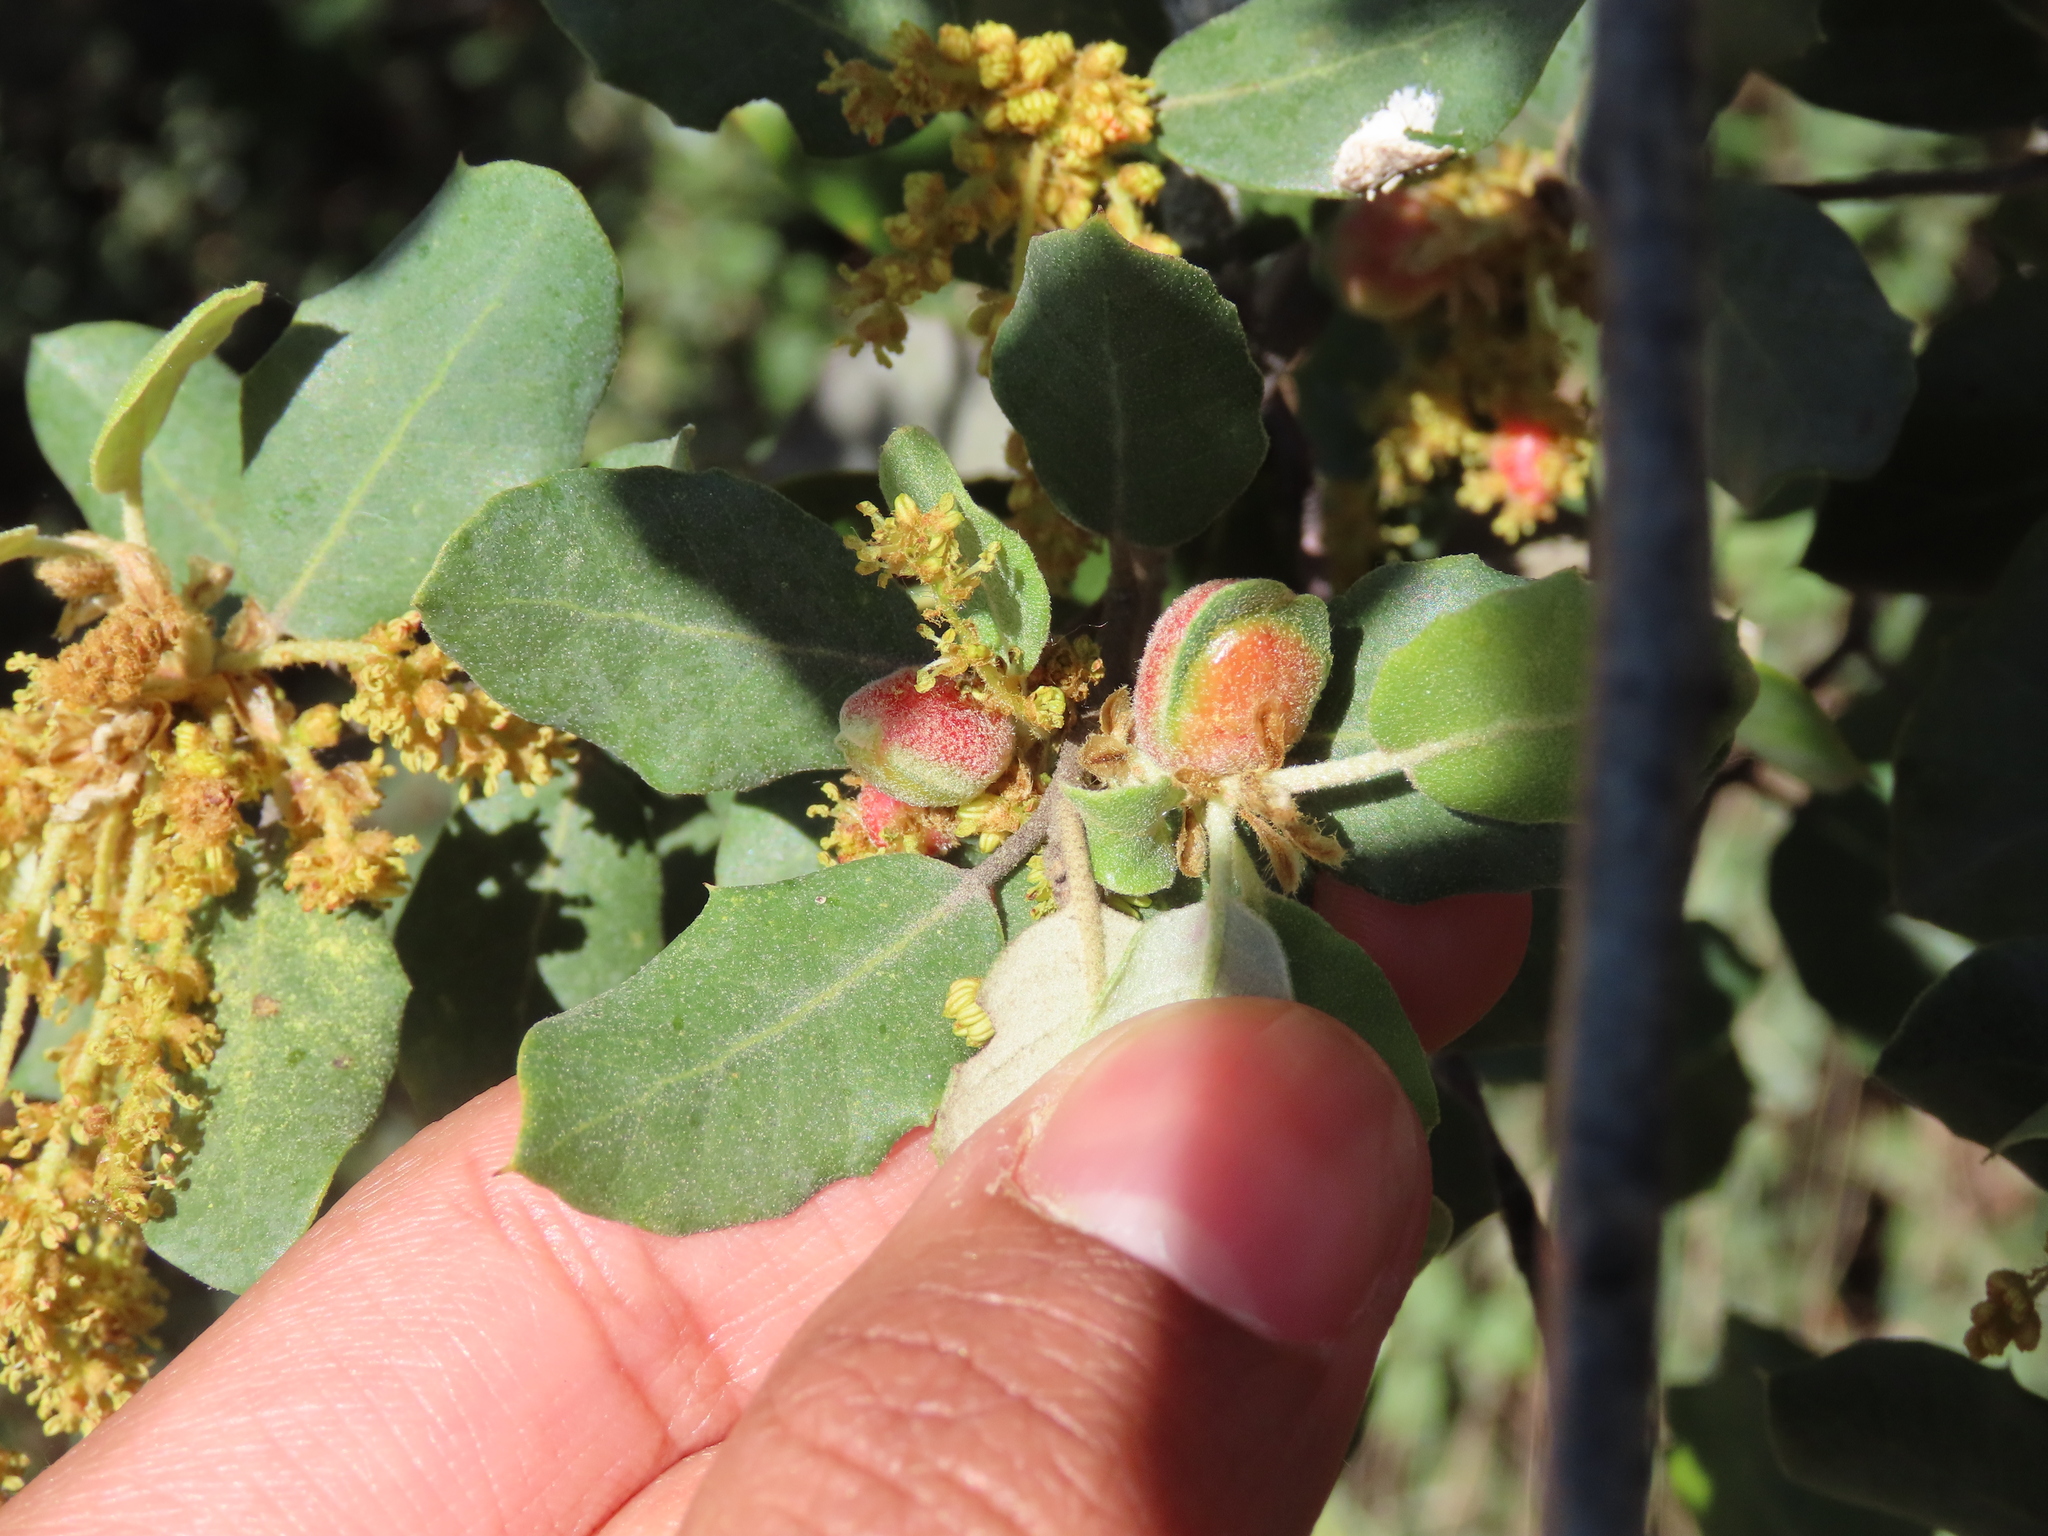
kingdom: Animalia
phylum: Arthropoda
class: Insecta
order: Hymenoptera
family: Cynipidae
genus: Plagiotrochus
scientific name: Plagiotrochus quercusilicis
